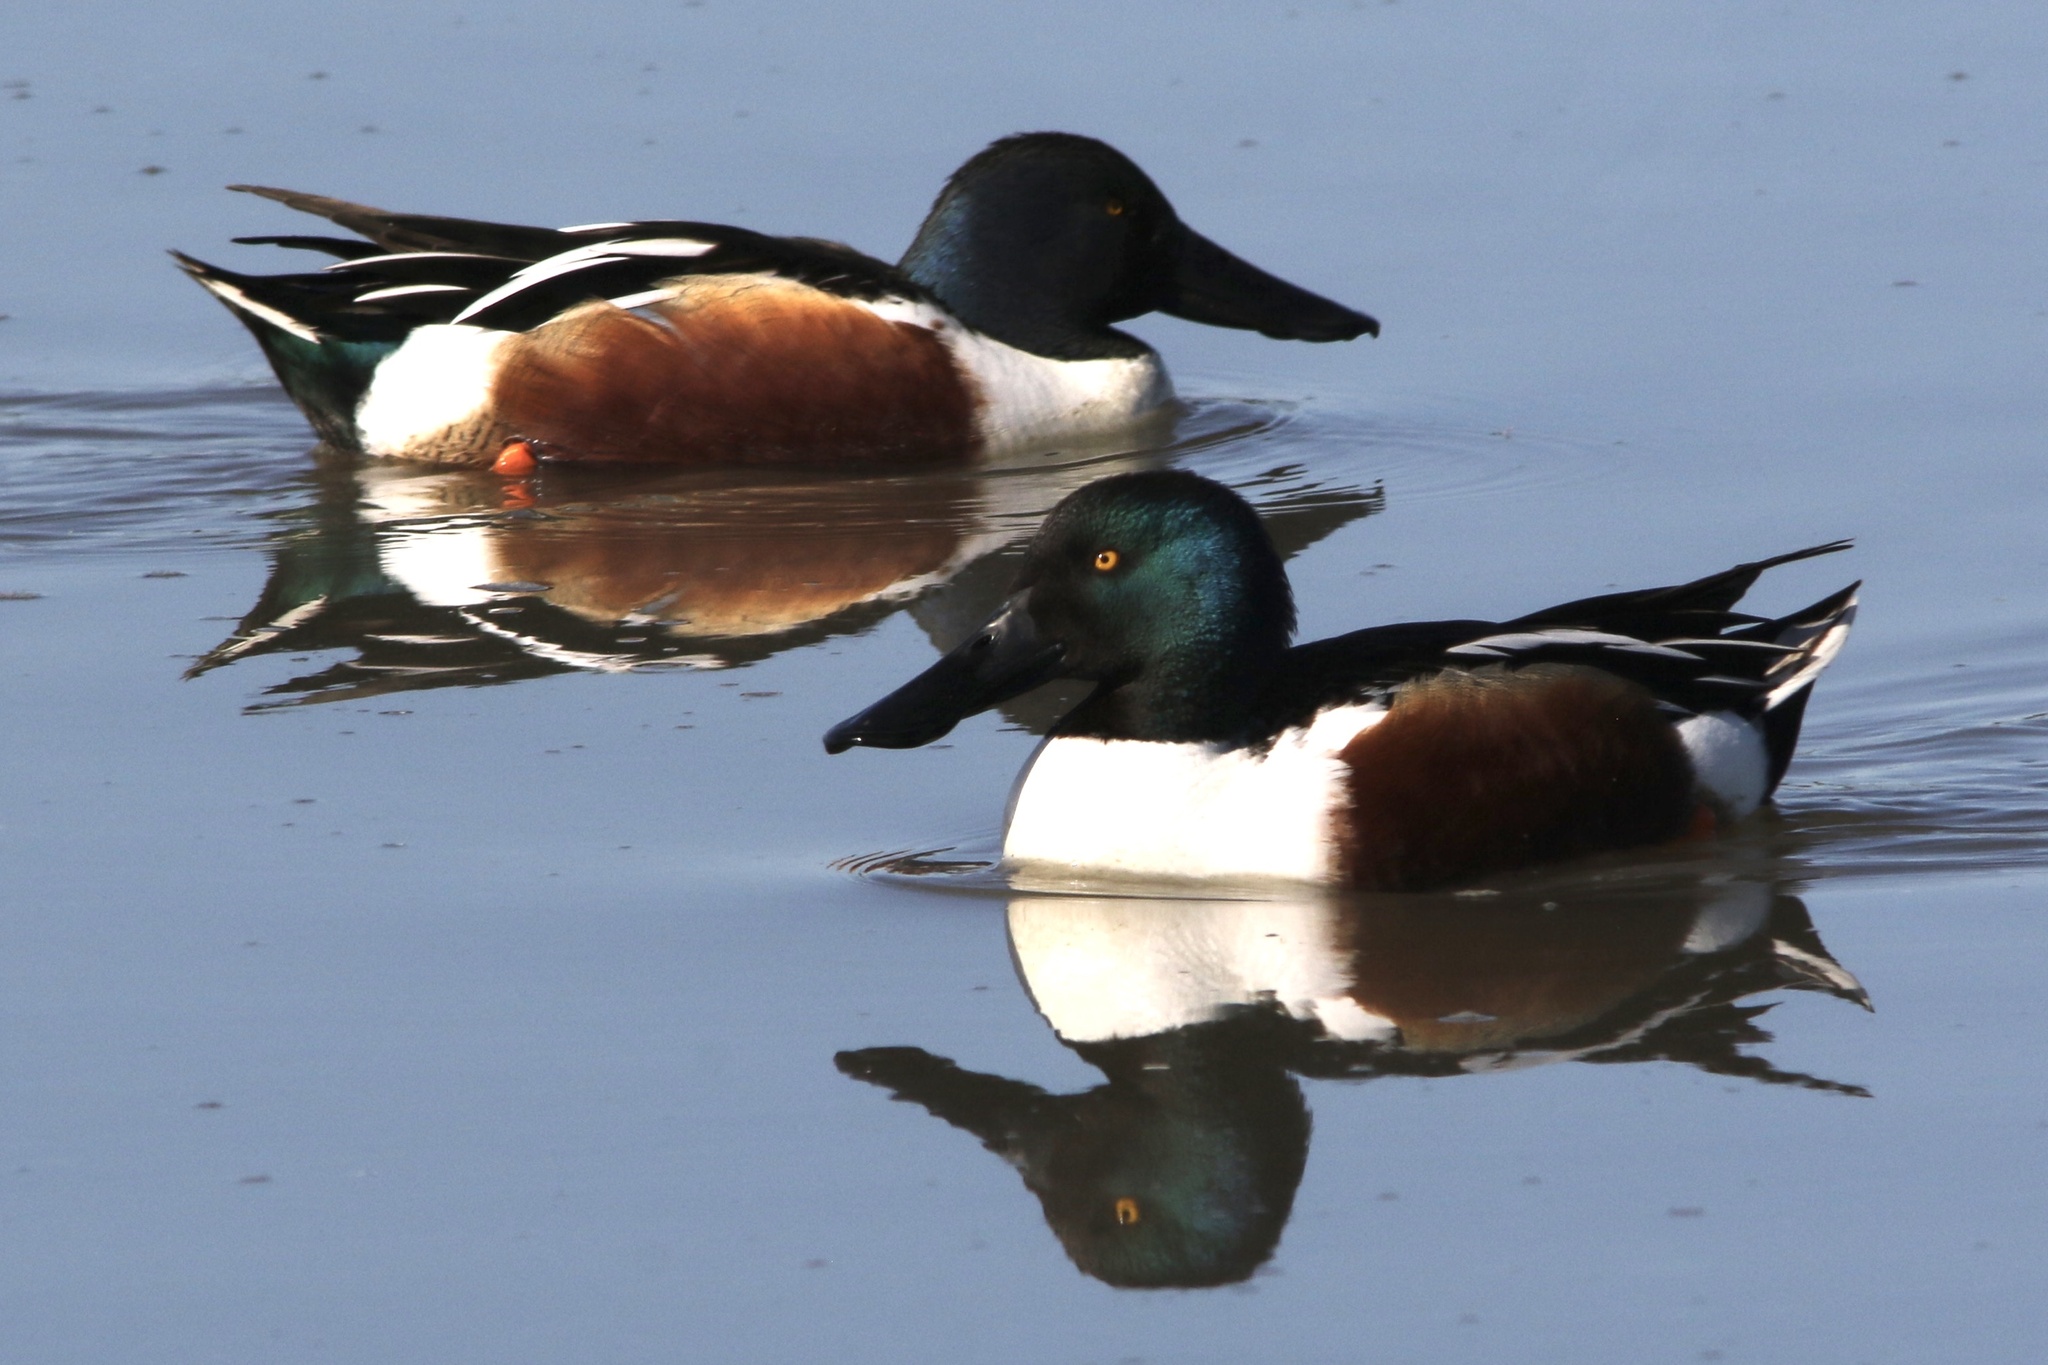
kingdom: Animalia
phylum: Chordata
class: Aves
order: Anseriformes
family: Anatidae
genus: Spatula
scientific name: Spatula clypeata
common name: Northern shoveler
